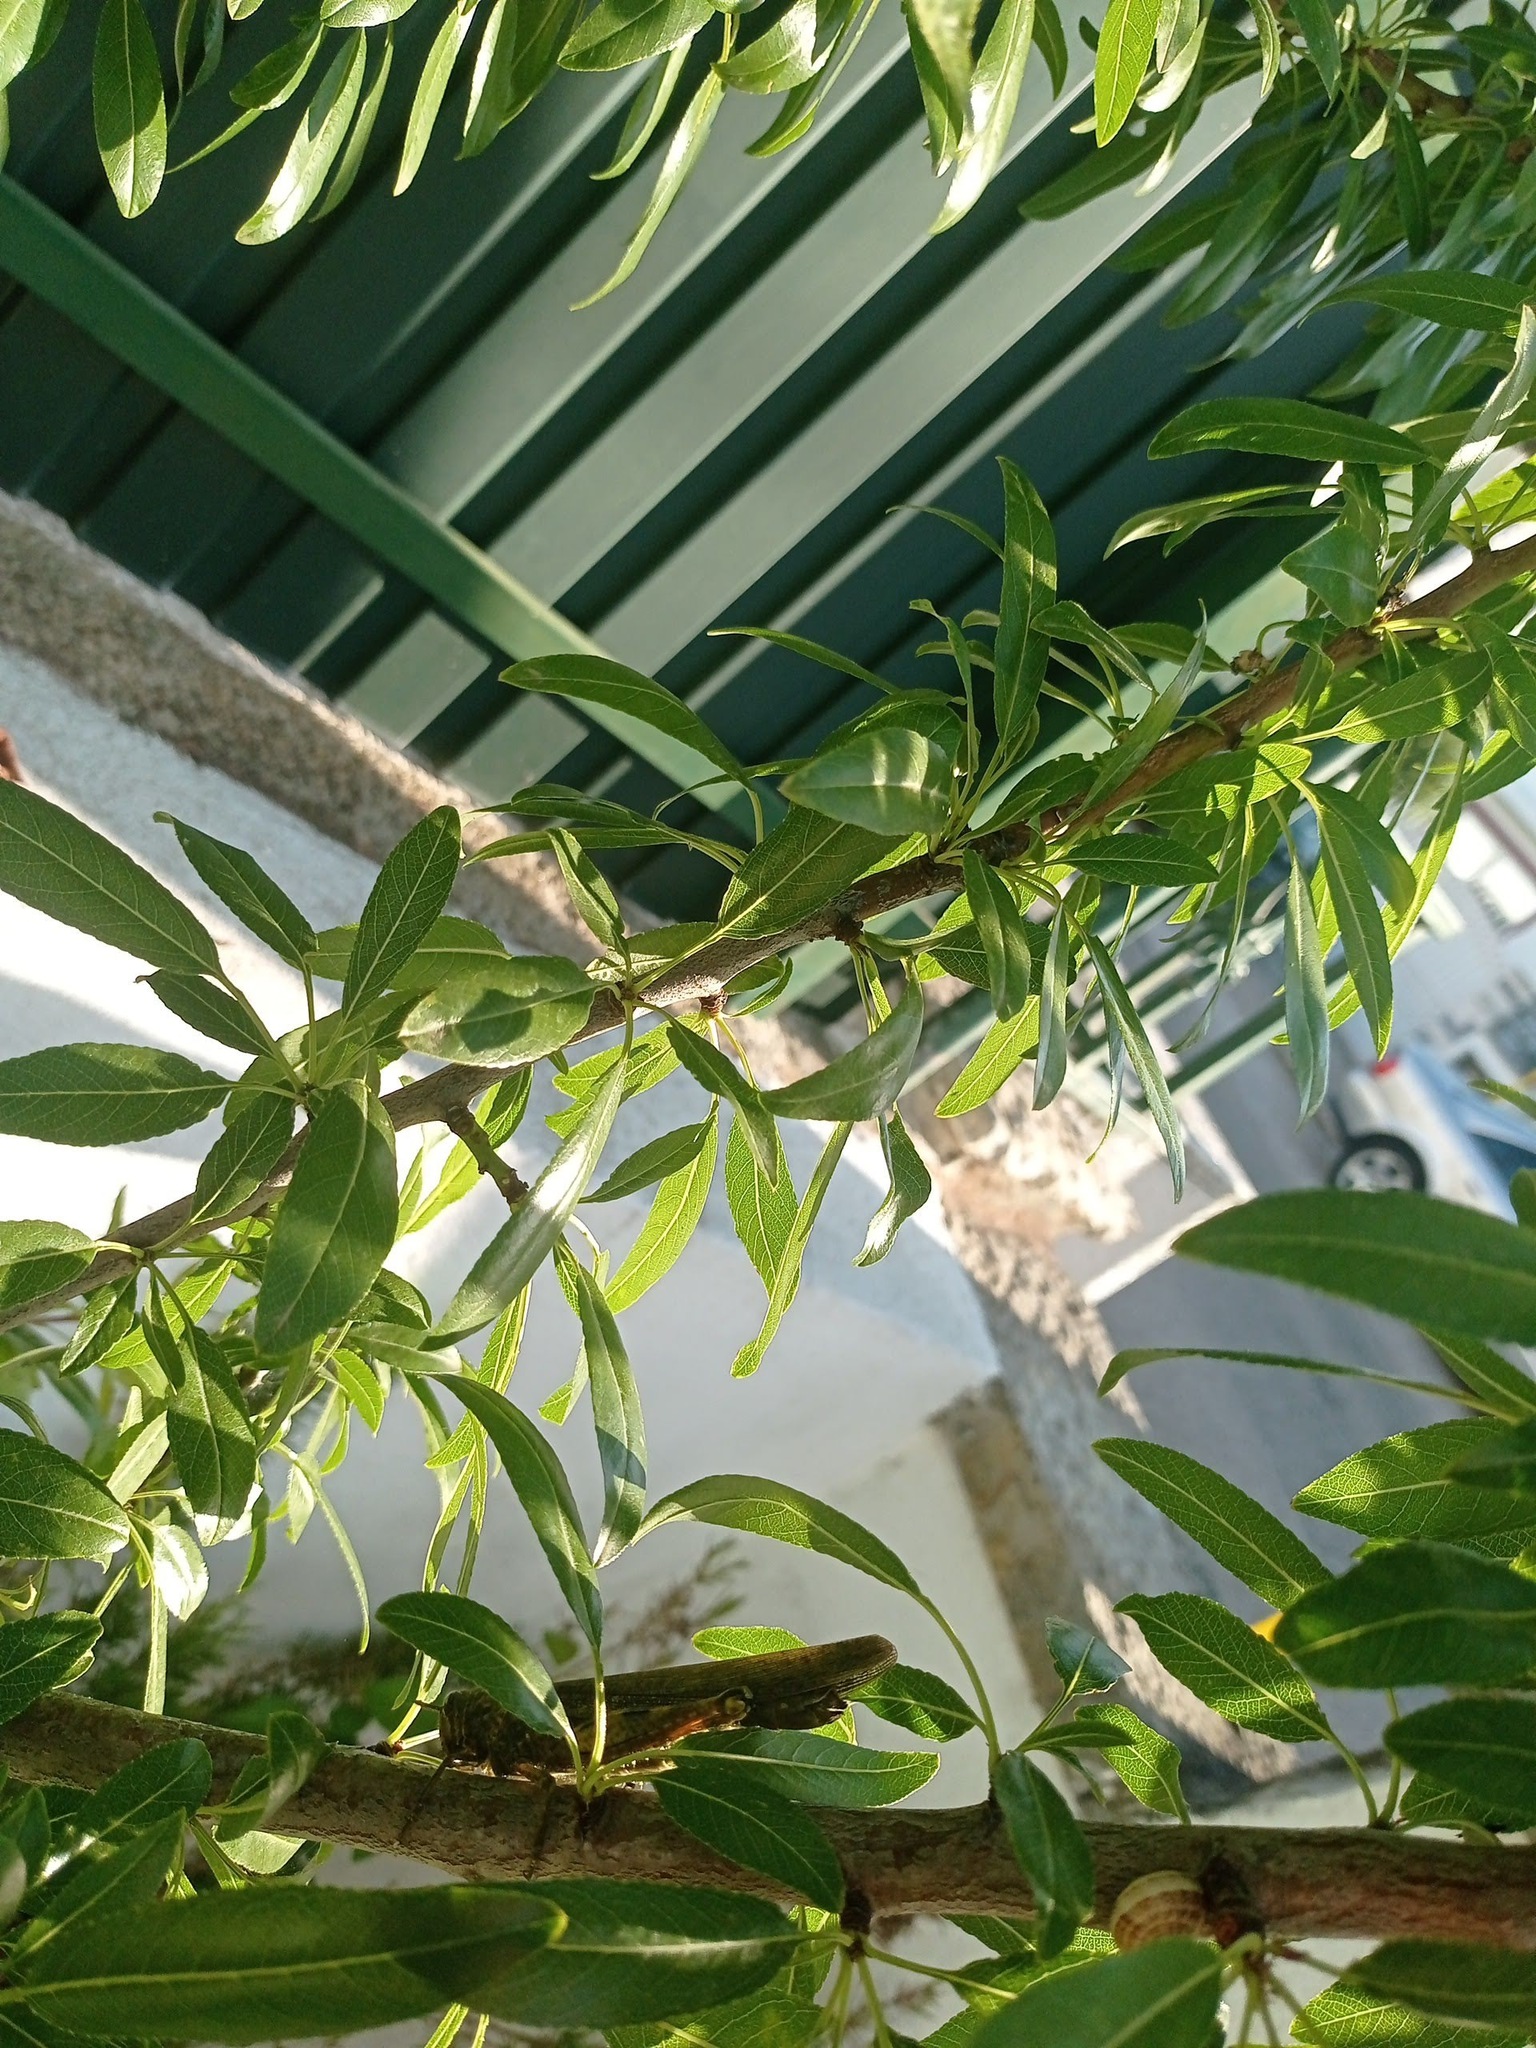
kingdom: Animalia
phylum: Arthropoda
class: Insecta
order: Orthoptera
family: Acrididae
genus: Anacridium
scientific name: Anacridium aegyptium
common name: Egyptian grasshopper
